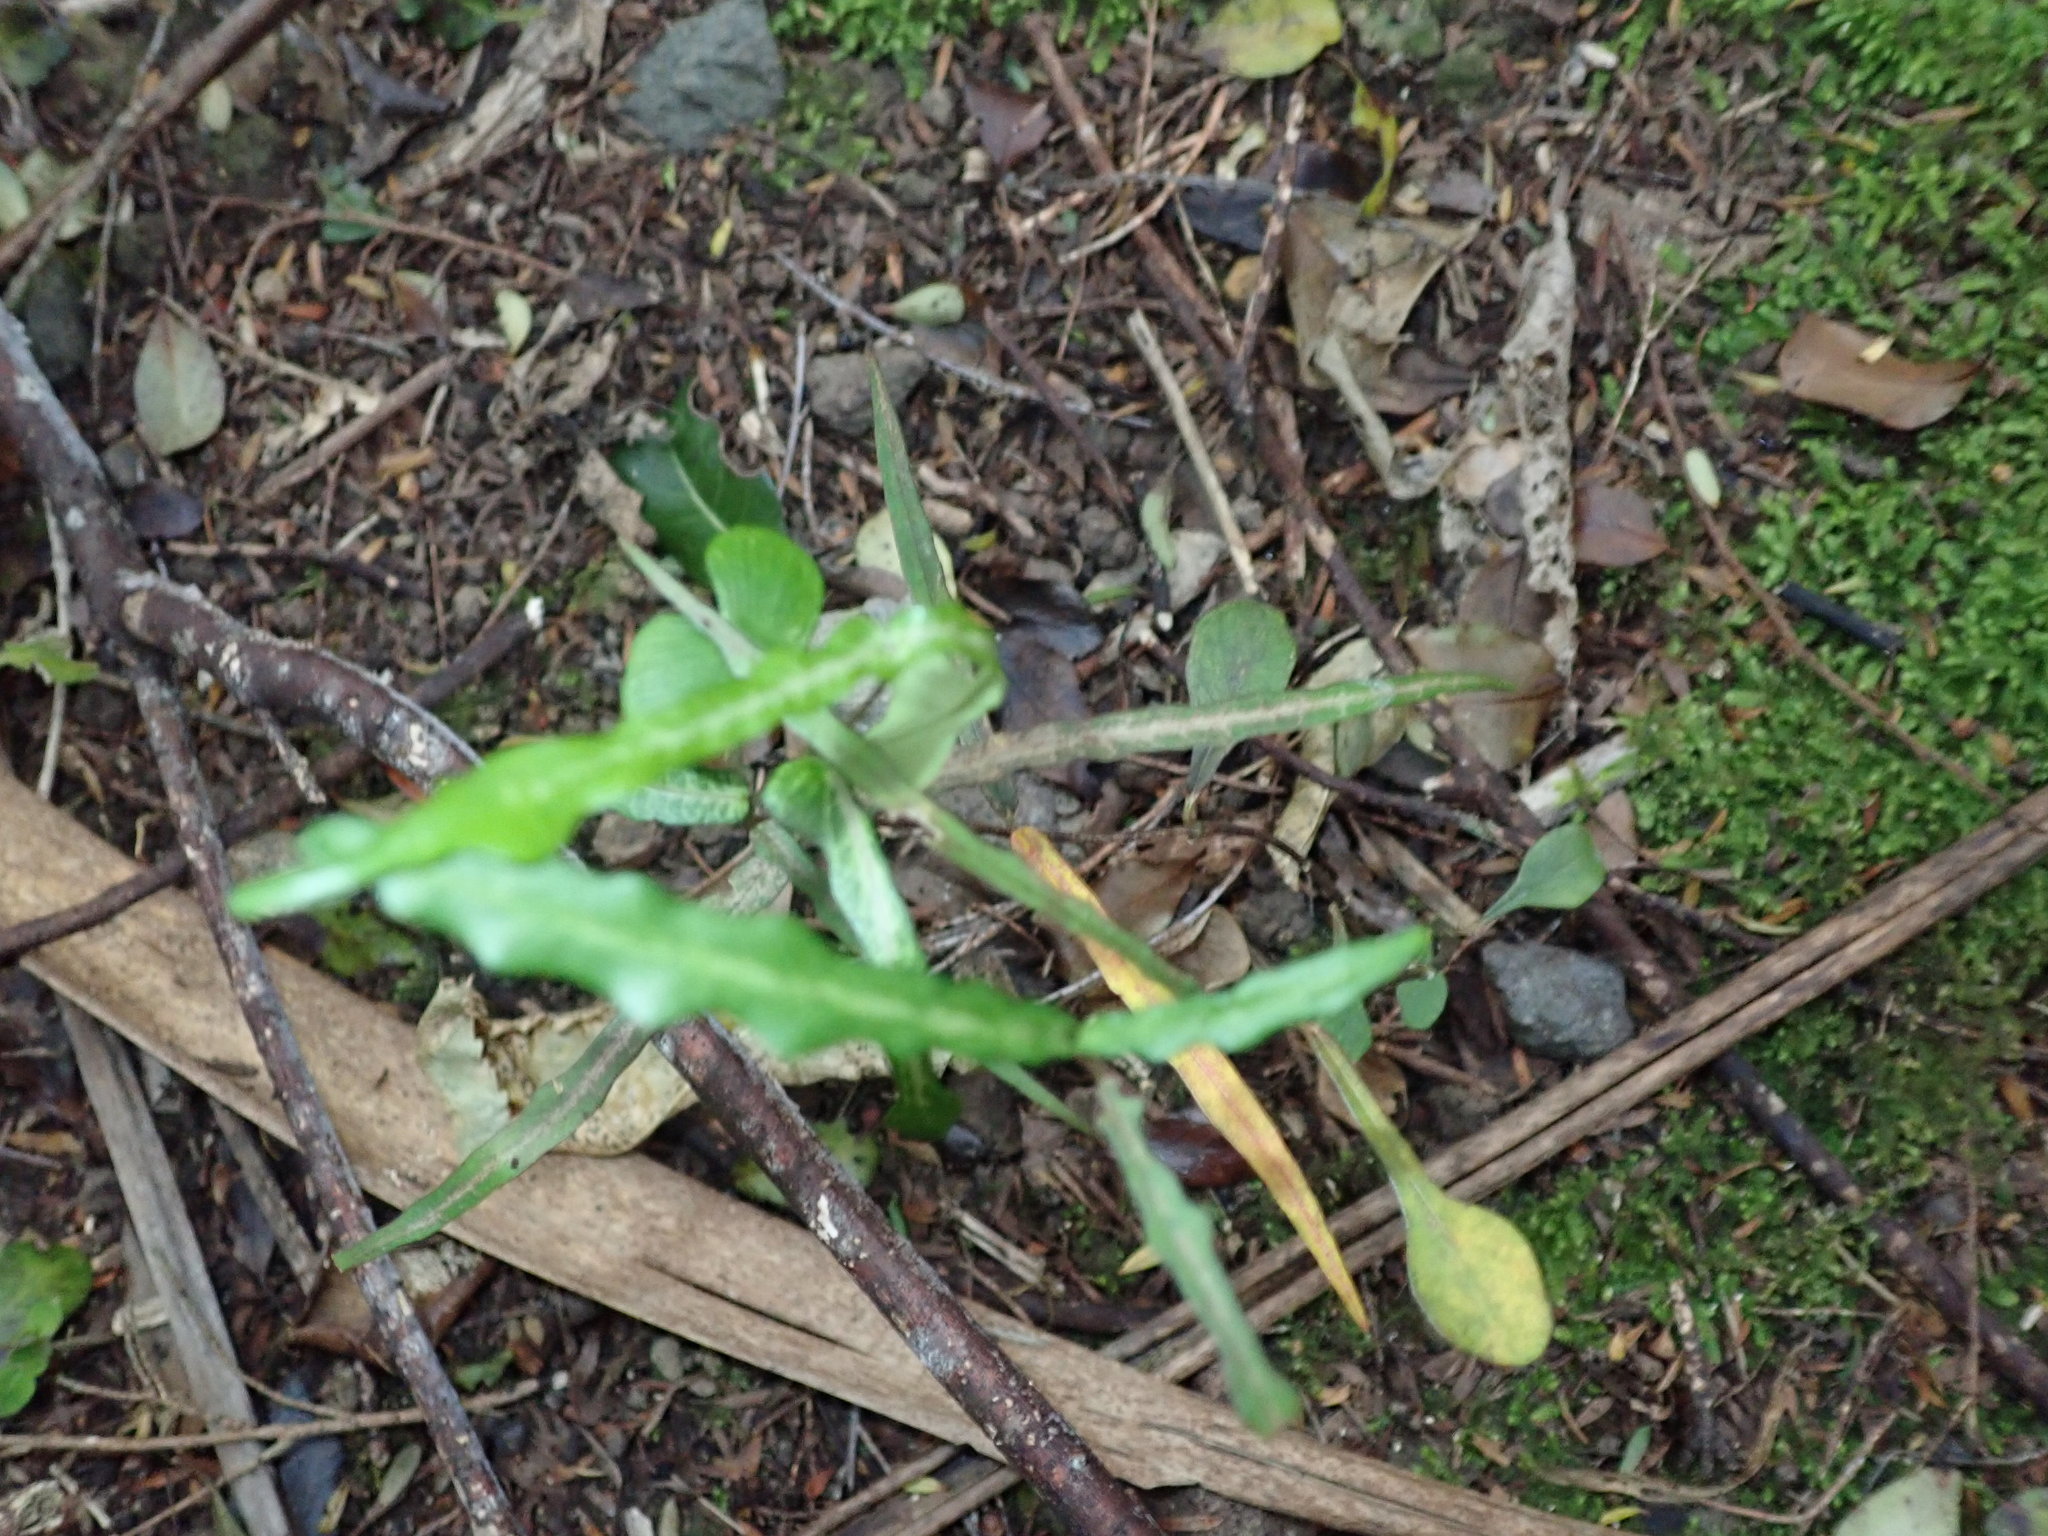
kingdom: Plantae
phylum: Tracheophyta
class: Magnoliopsida
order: Gentianales
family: Apocynaceae
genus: Parsonsia
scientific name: Parsonsia heterophylla
